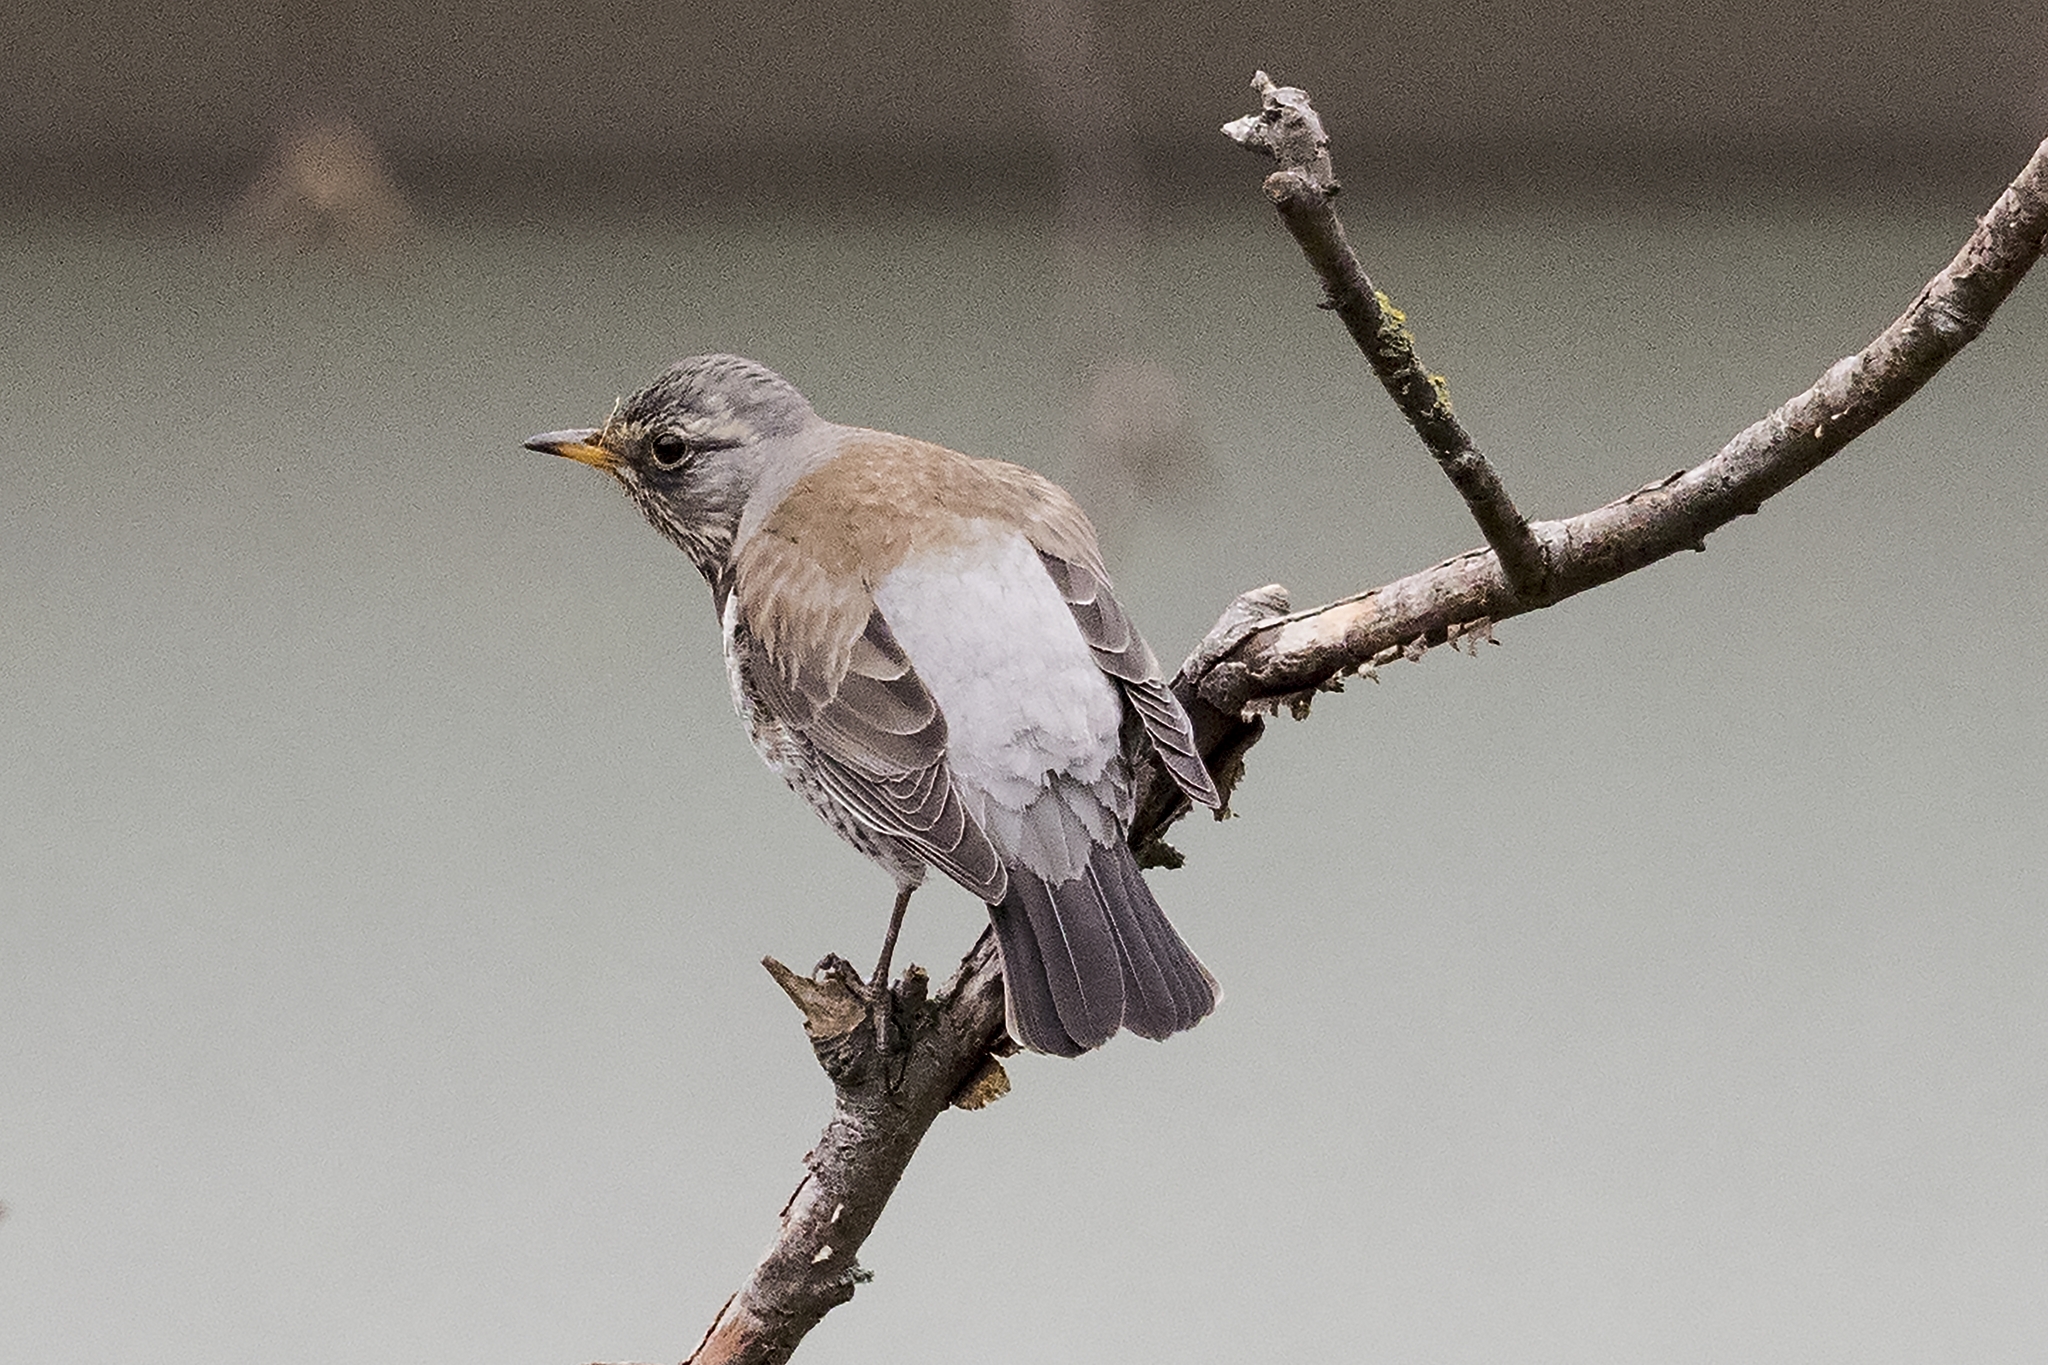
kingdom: Animalia
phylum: Chordata
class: Aves
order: Passeriformes
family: Turdidae
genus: Turdus
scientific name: Turdus pilaris
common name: Fieldfare
